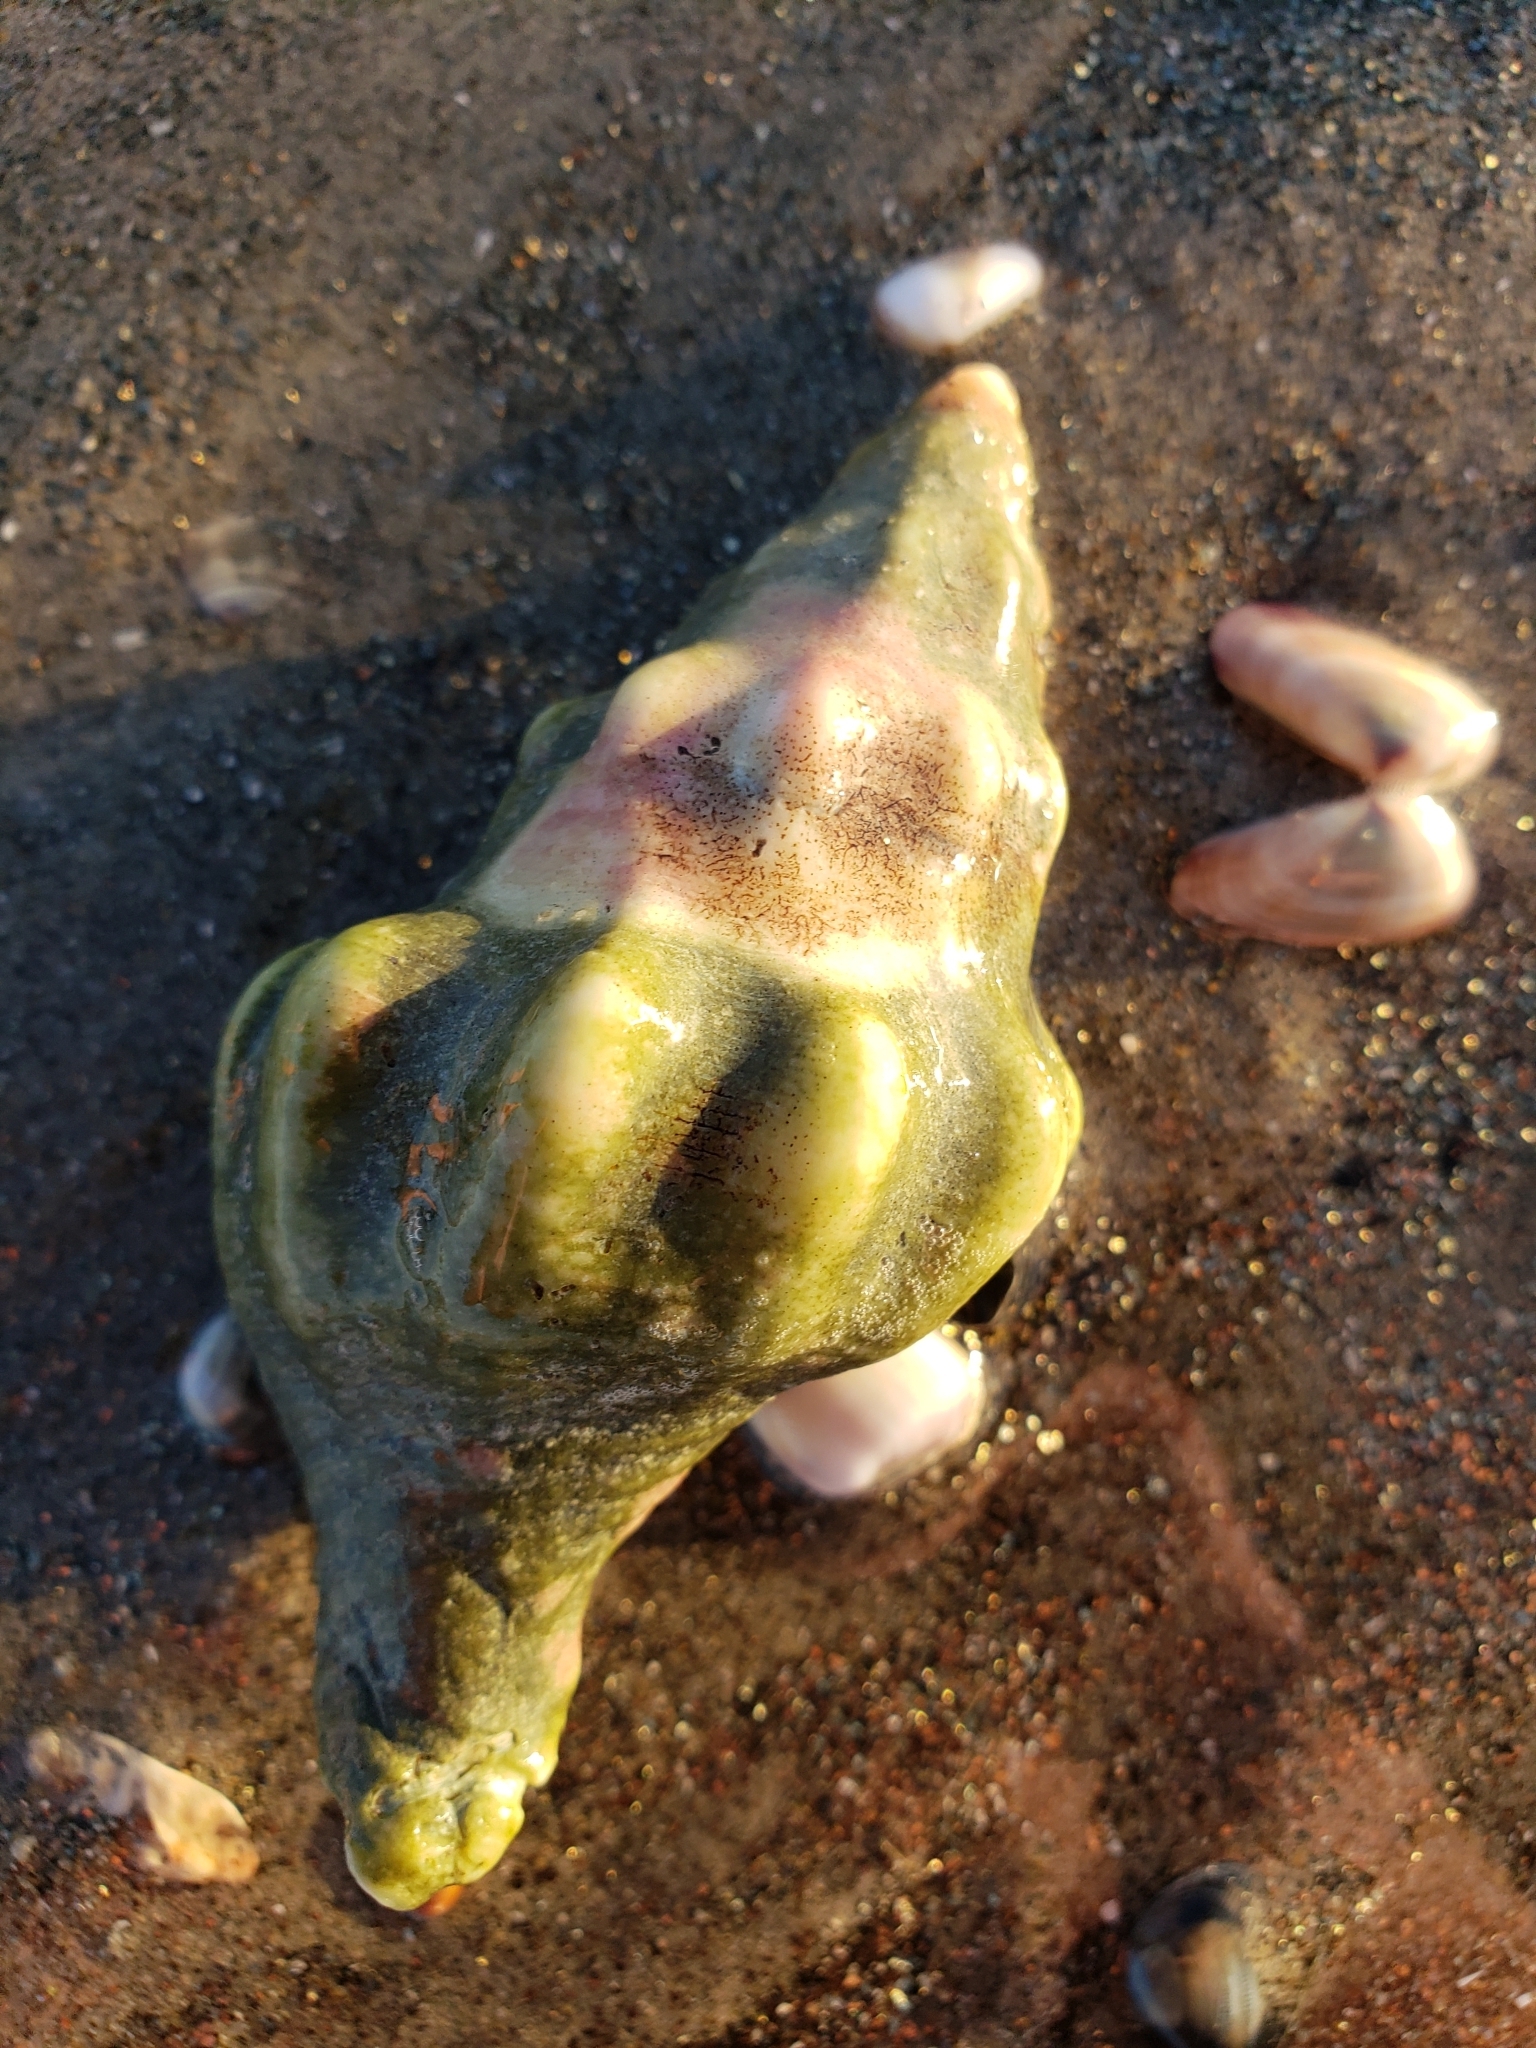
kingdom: Animalia
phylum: Mollusca
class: Gastropoda
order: Neogastropoda
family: Austrosiphonidae
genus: Kelletia
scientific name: Kelletia kelletii
